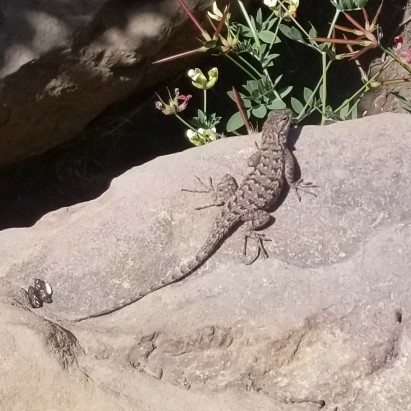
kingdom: Animalia
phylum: Chordata
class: Squamata
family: Phrynosomatidae
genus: Sceloporus
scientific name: Sceloporus occidentalis
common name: Western fence lizard
